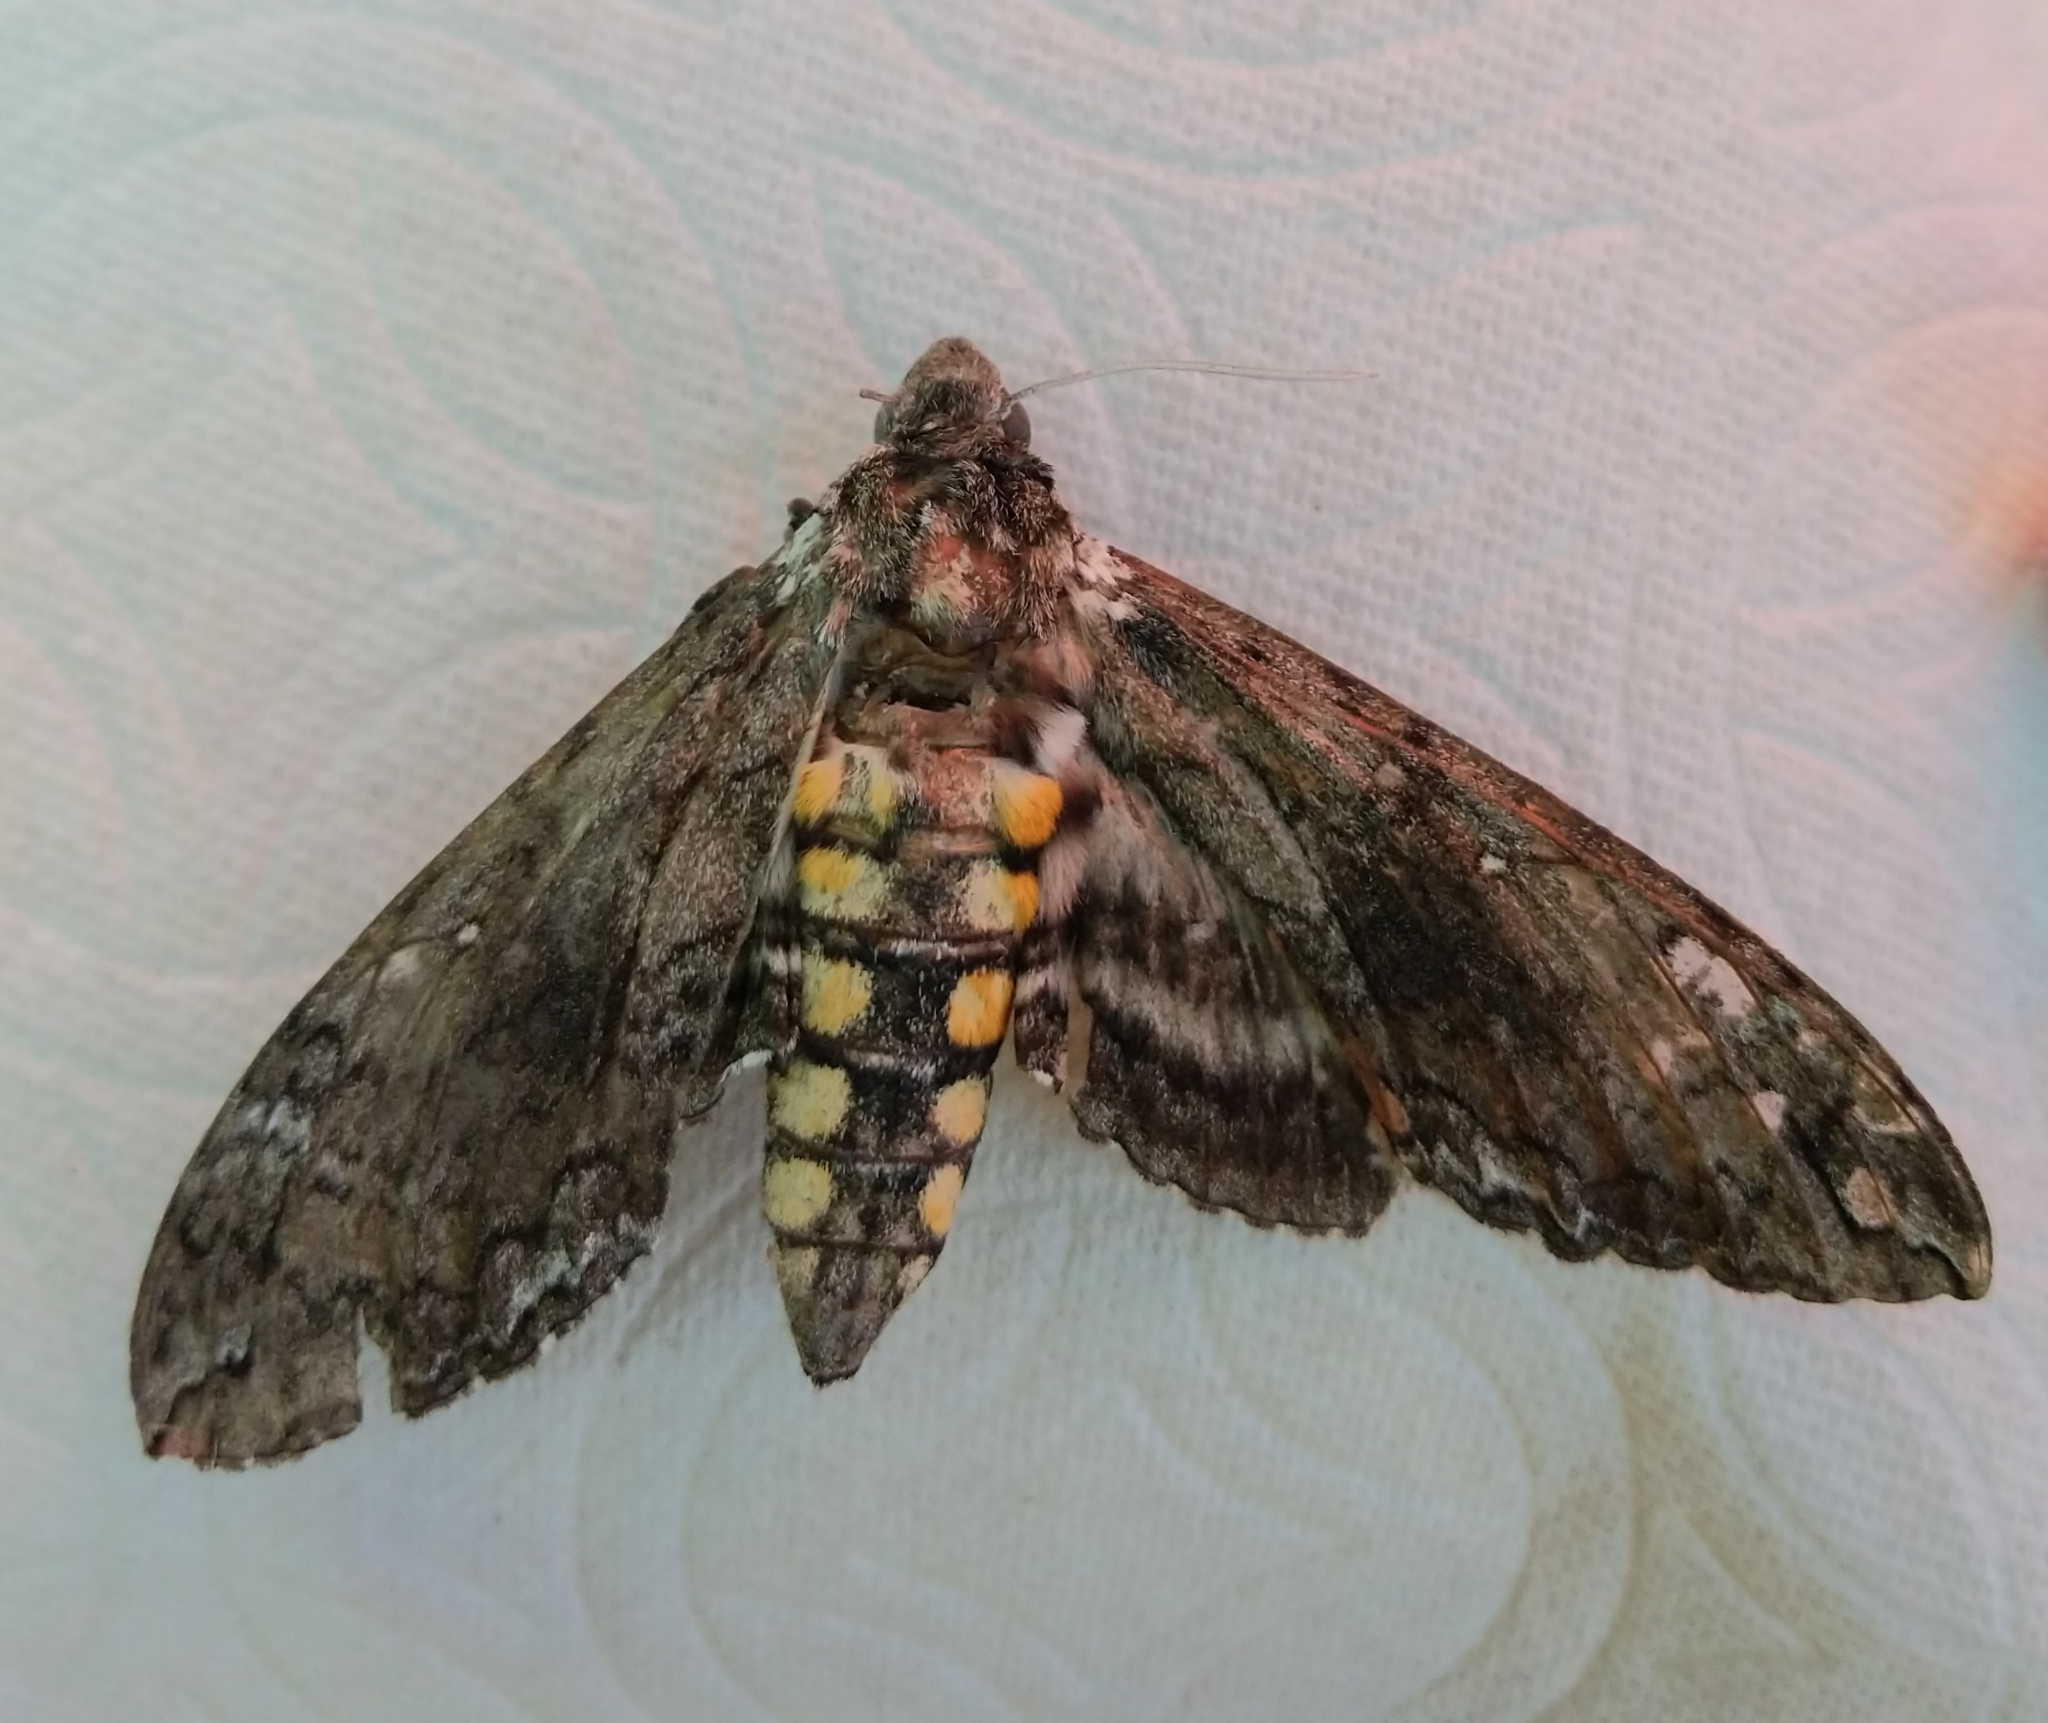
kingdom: Animalia
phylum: Arthropoda
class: Insecta
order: Lepidoptera
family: Sphingidae
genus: Manduca
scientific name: Manduca sexta
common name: Carolina sphinx
